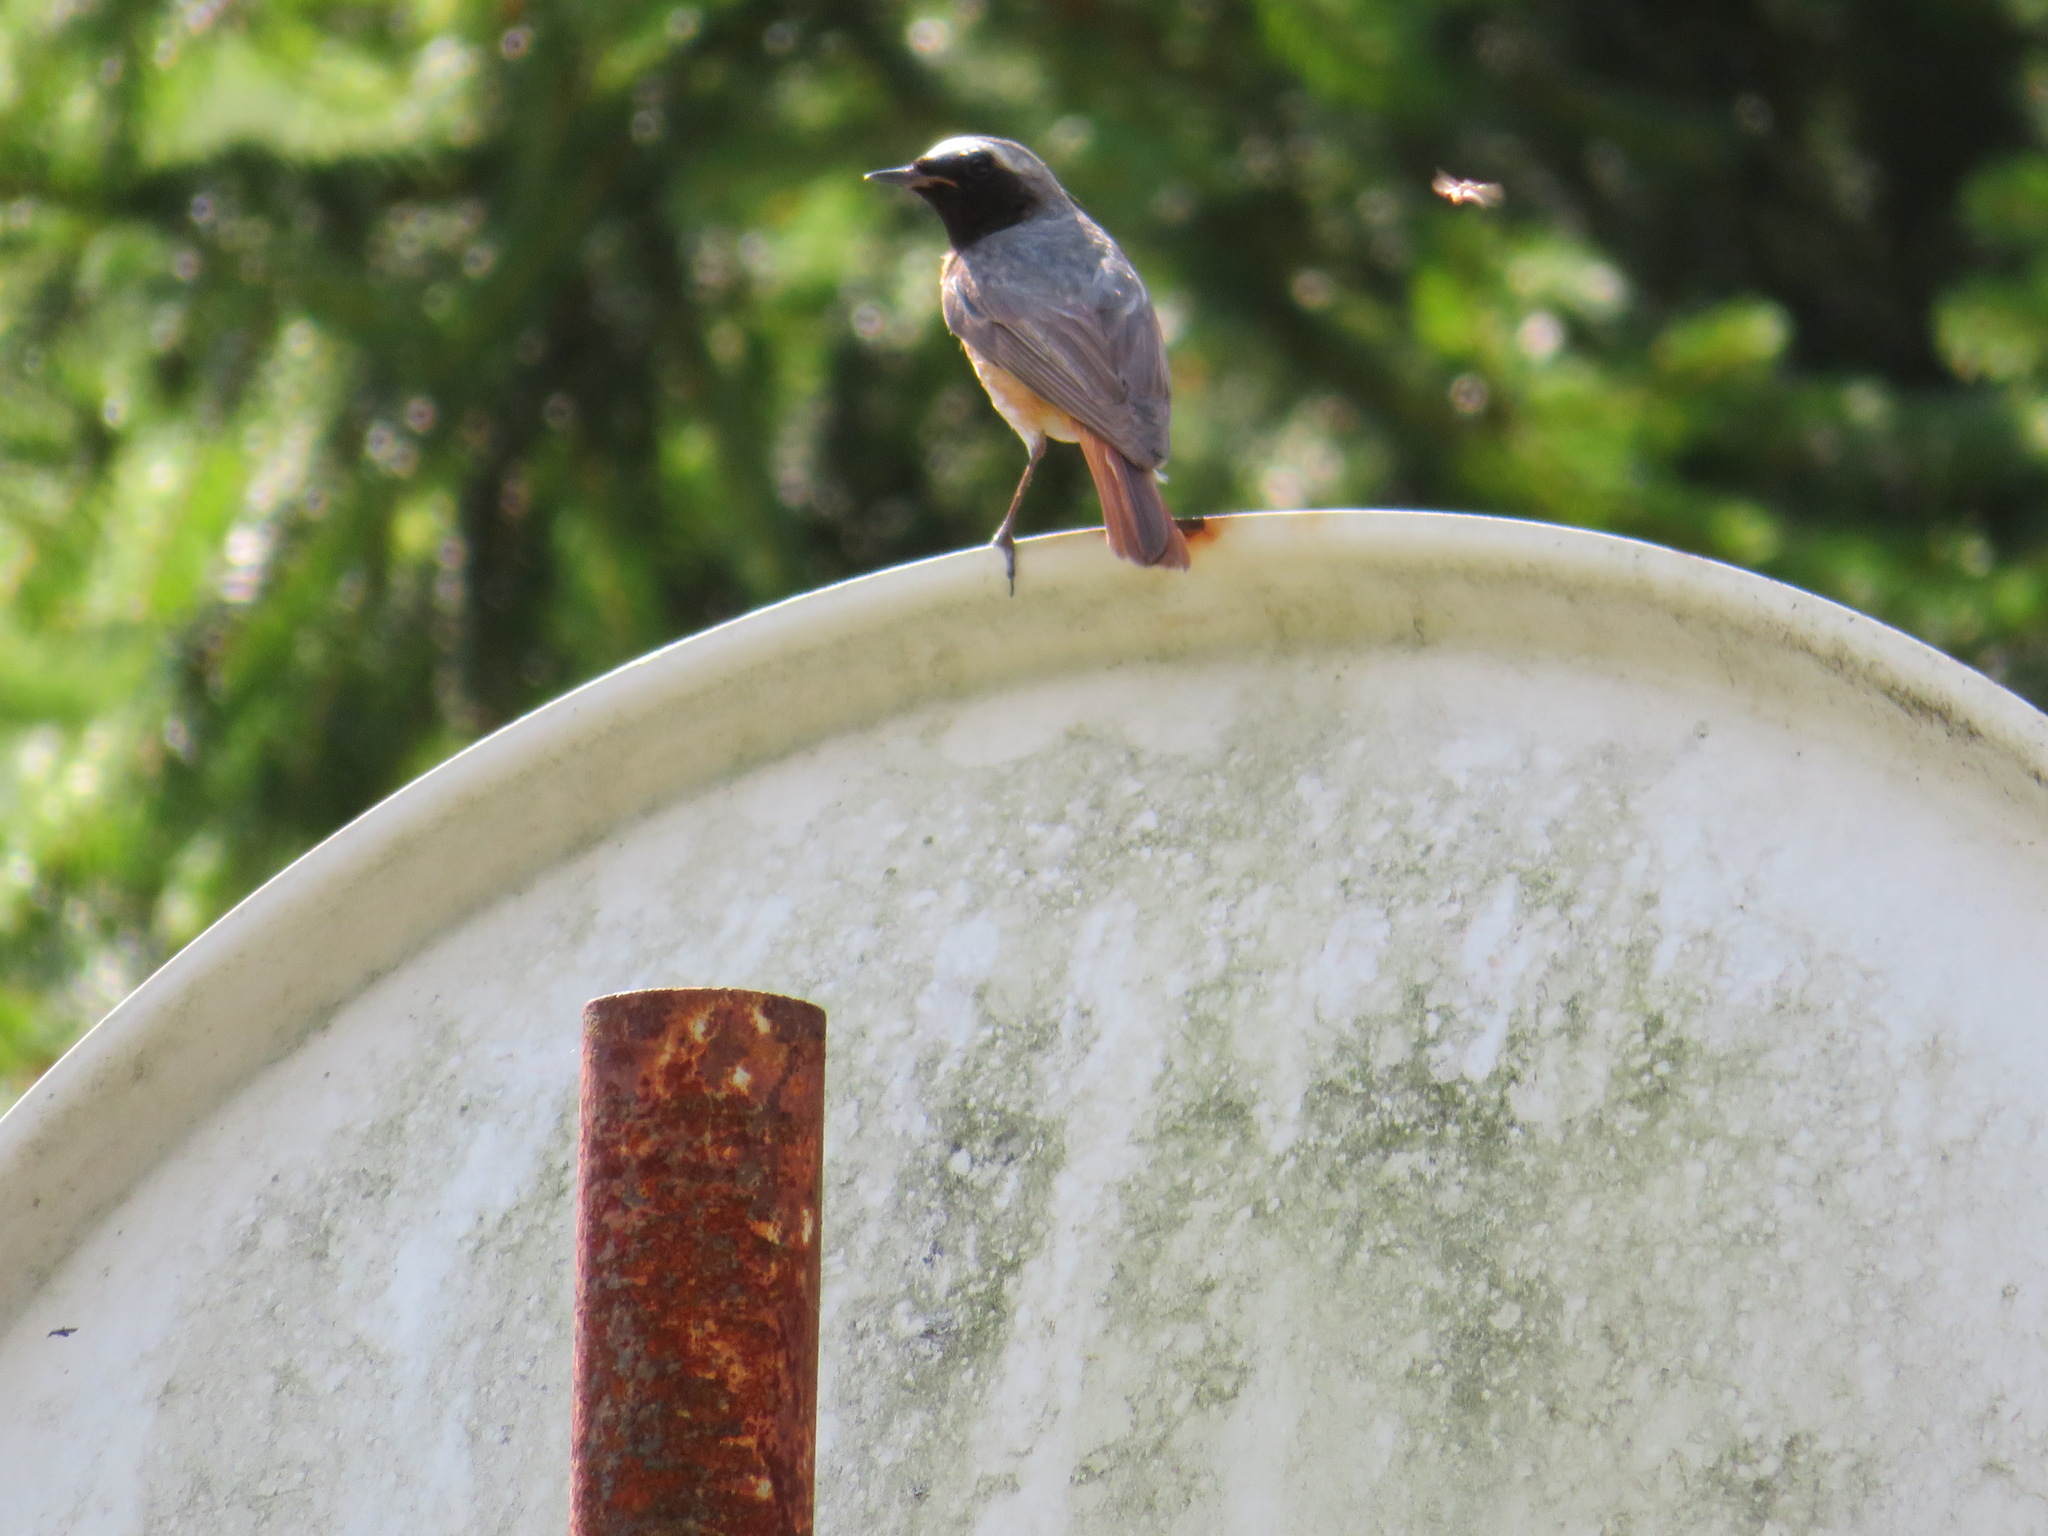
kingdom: Animalia
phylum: Chordata
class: Aves
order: Passeriformes
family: Muscicapidae
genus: Phoenicurus
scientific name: Phoenicurus phoenicurus
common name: Common redstart
